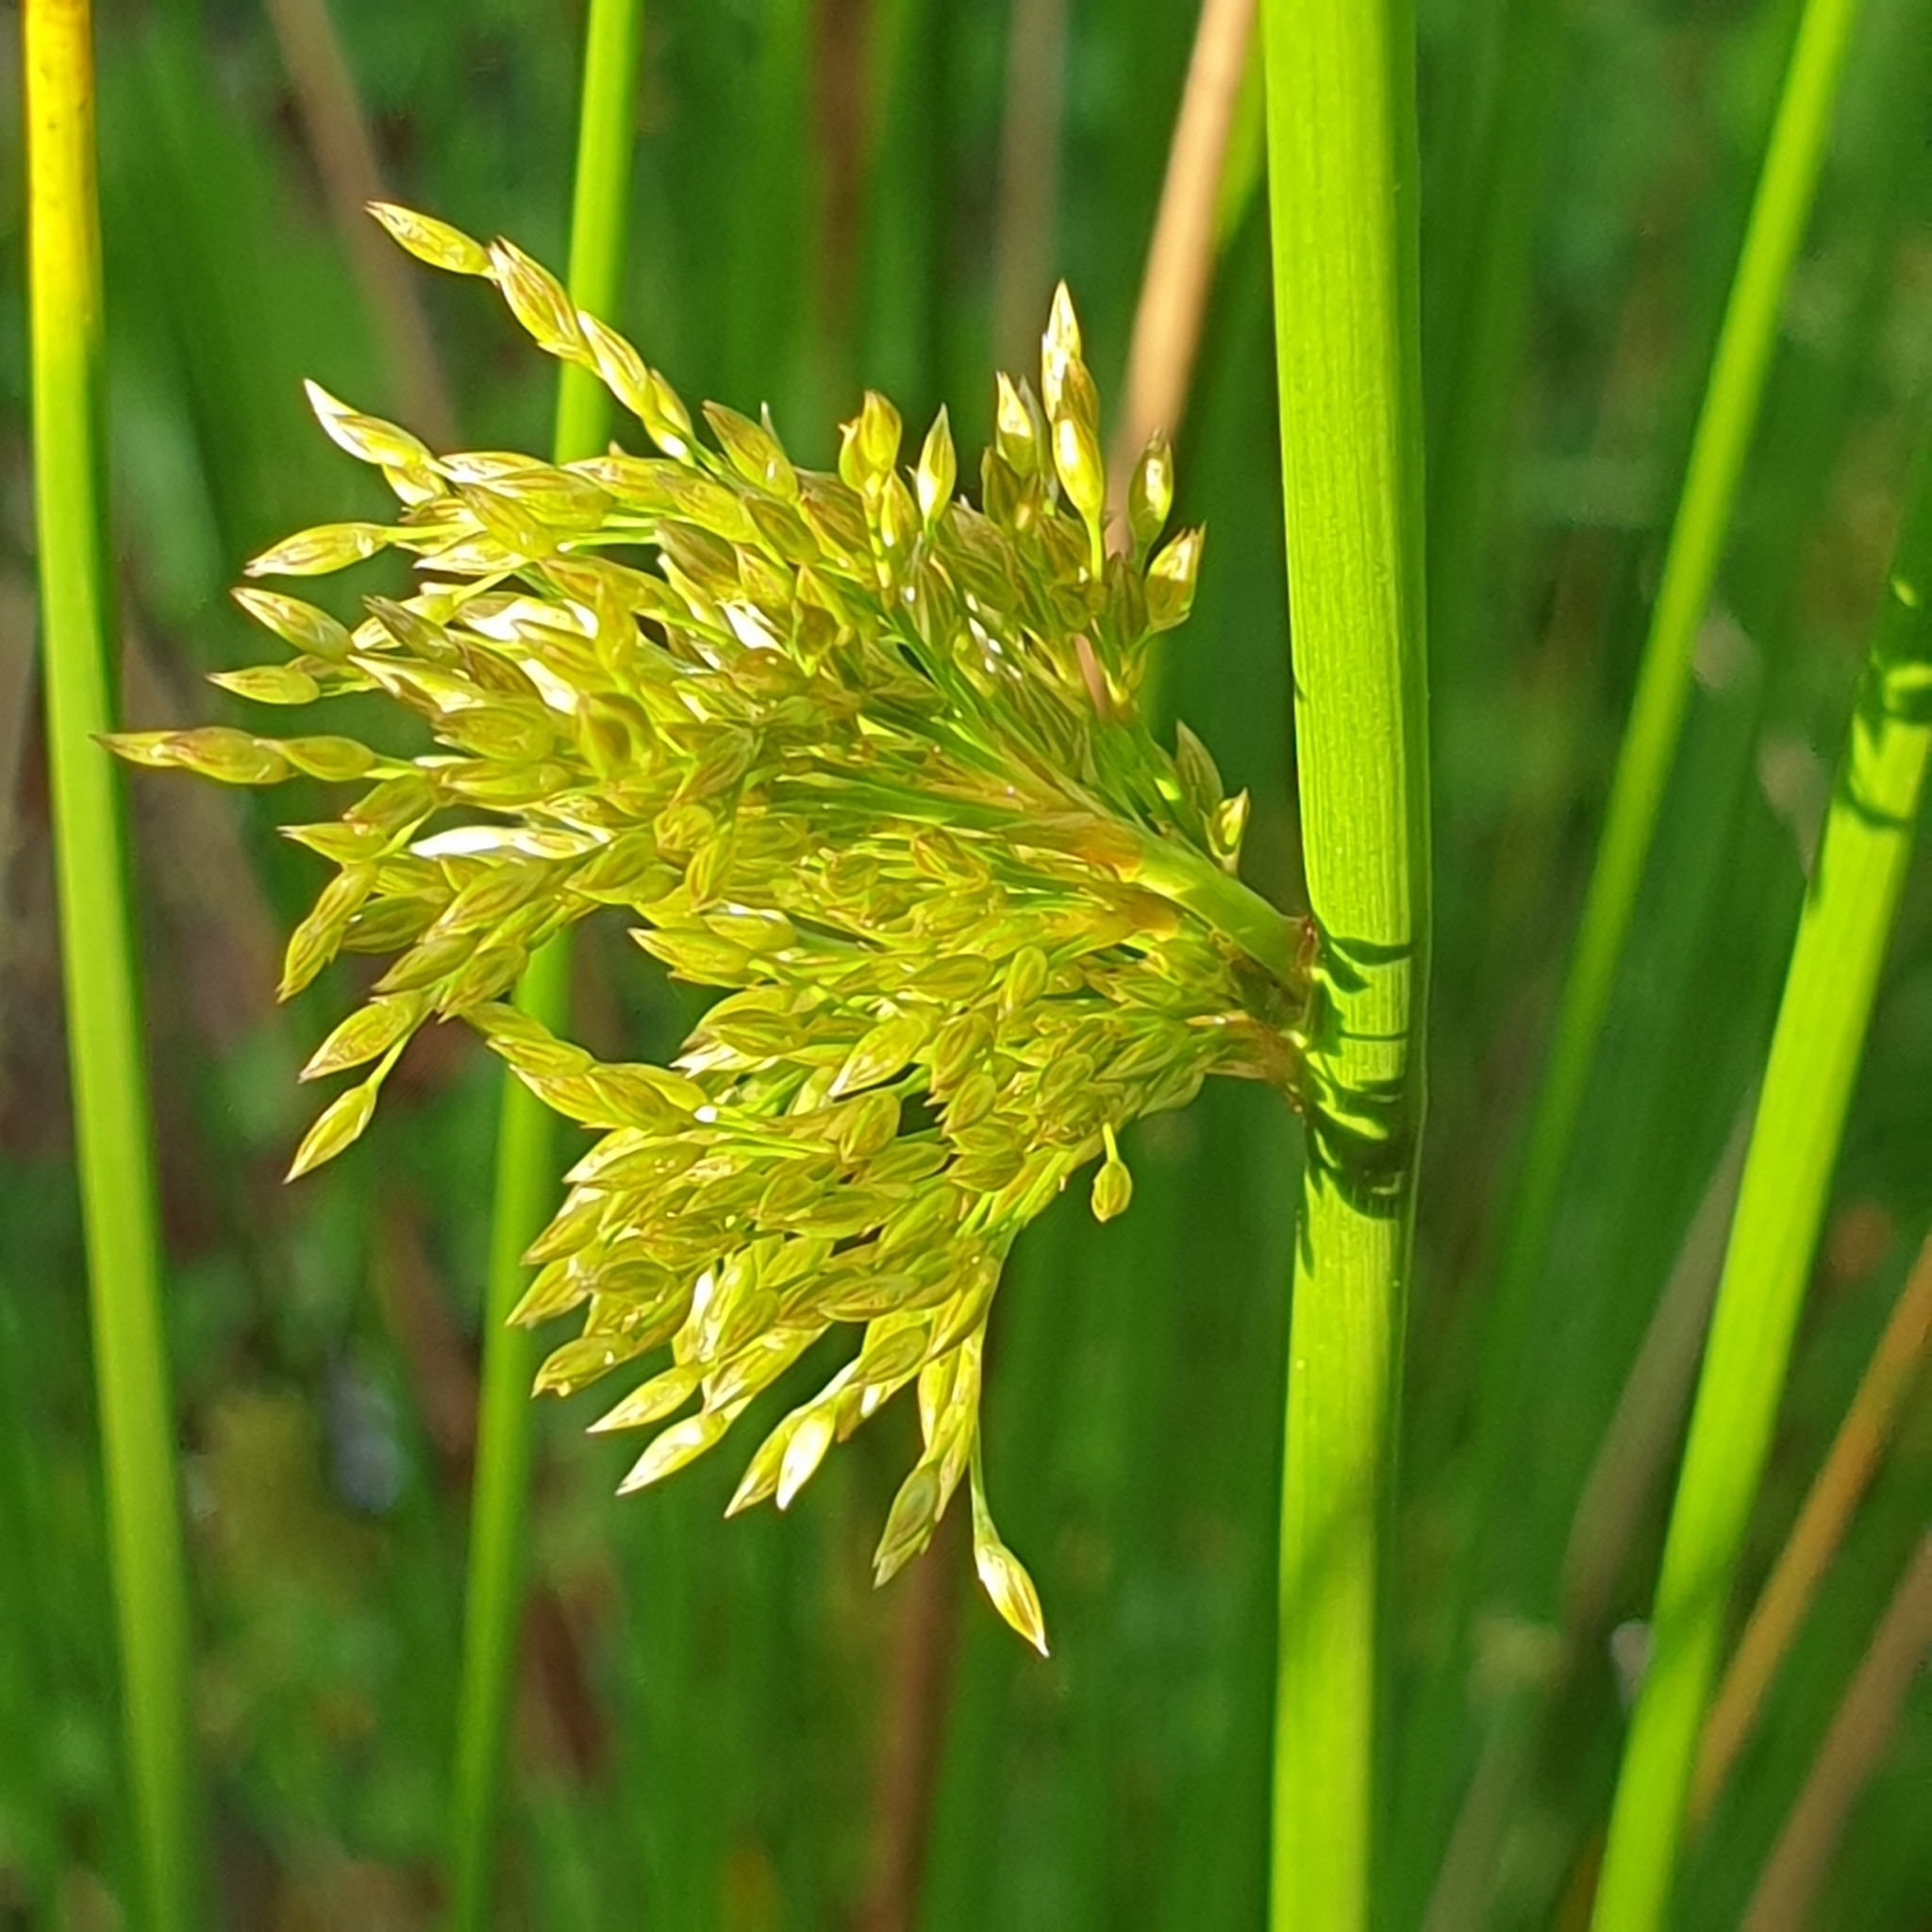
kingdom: Plantae
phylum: Tracheophyta
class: Liliopsida
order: Poales
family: Juncaceae
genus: Juncus
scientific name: Juncus effusus
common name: Soft rush
